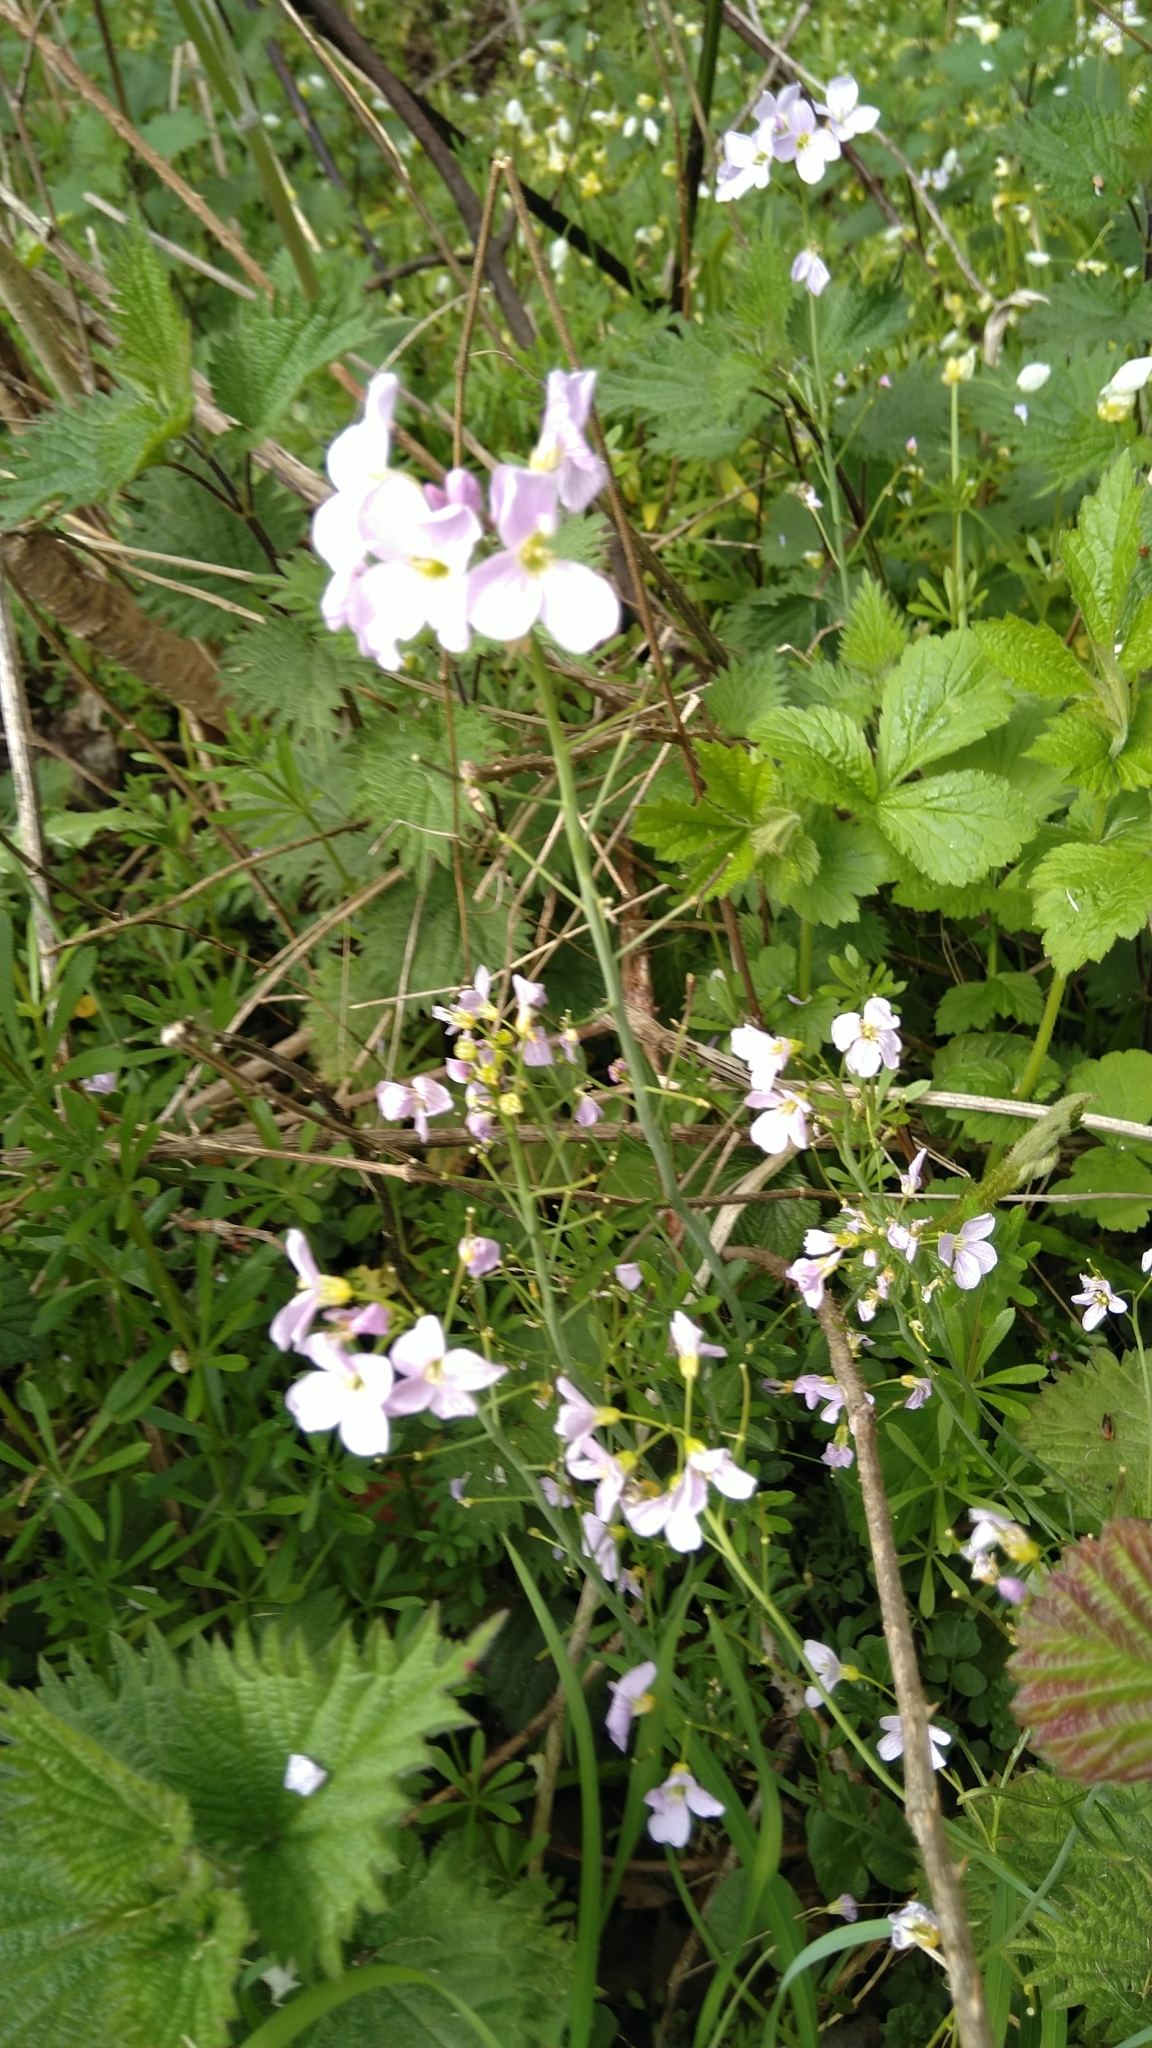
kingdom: Plantae
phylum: Tracheophyta
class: Magnoliopsida
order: Brassicales
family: Brassicaceae
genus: Cardamine
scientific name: Cardamine pratensis
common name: Cuckoo flower
